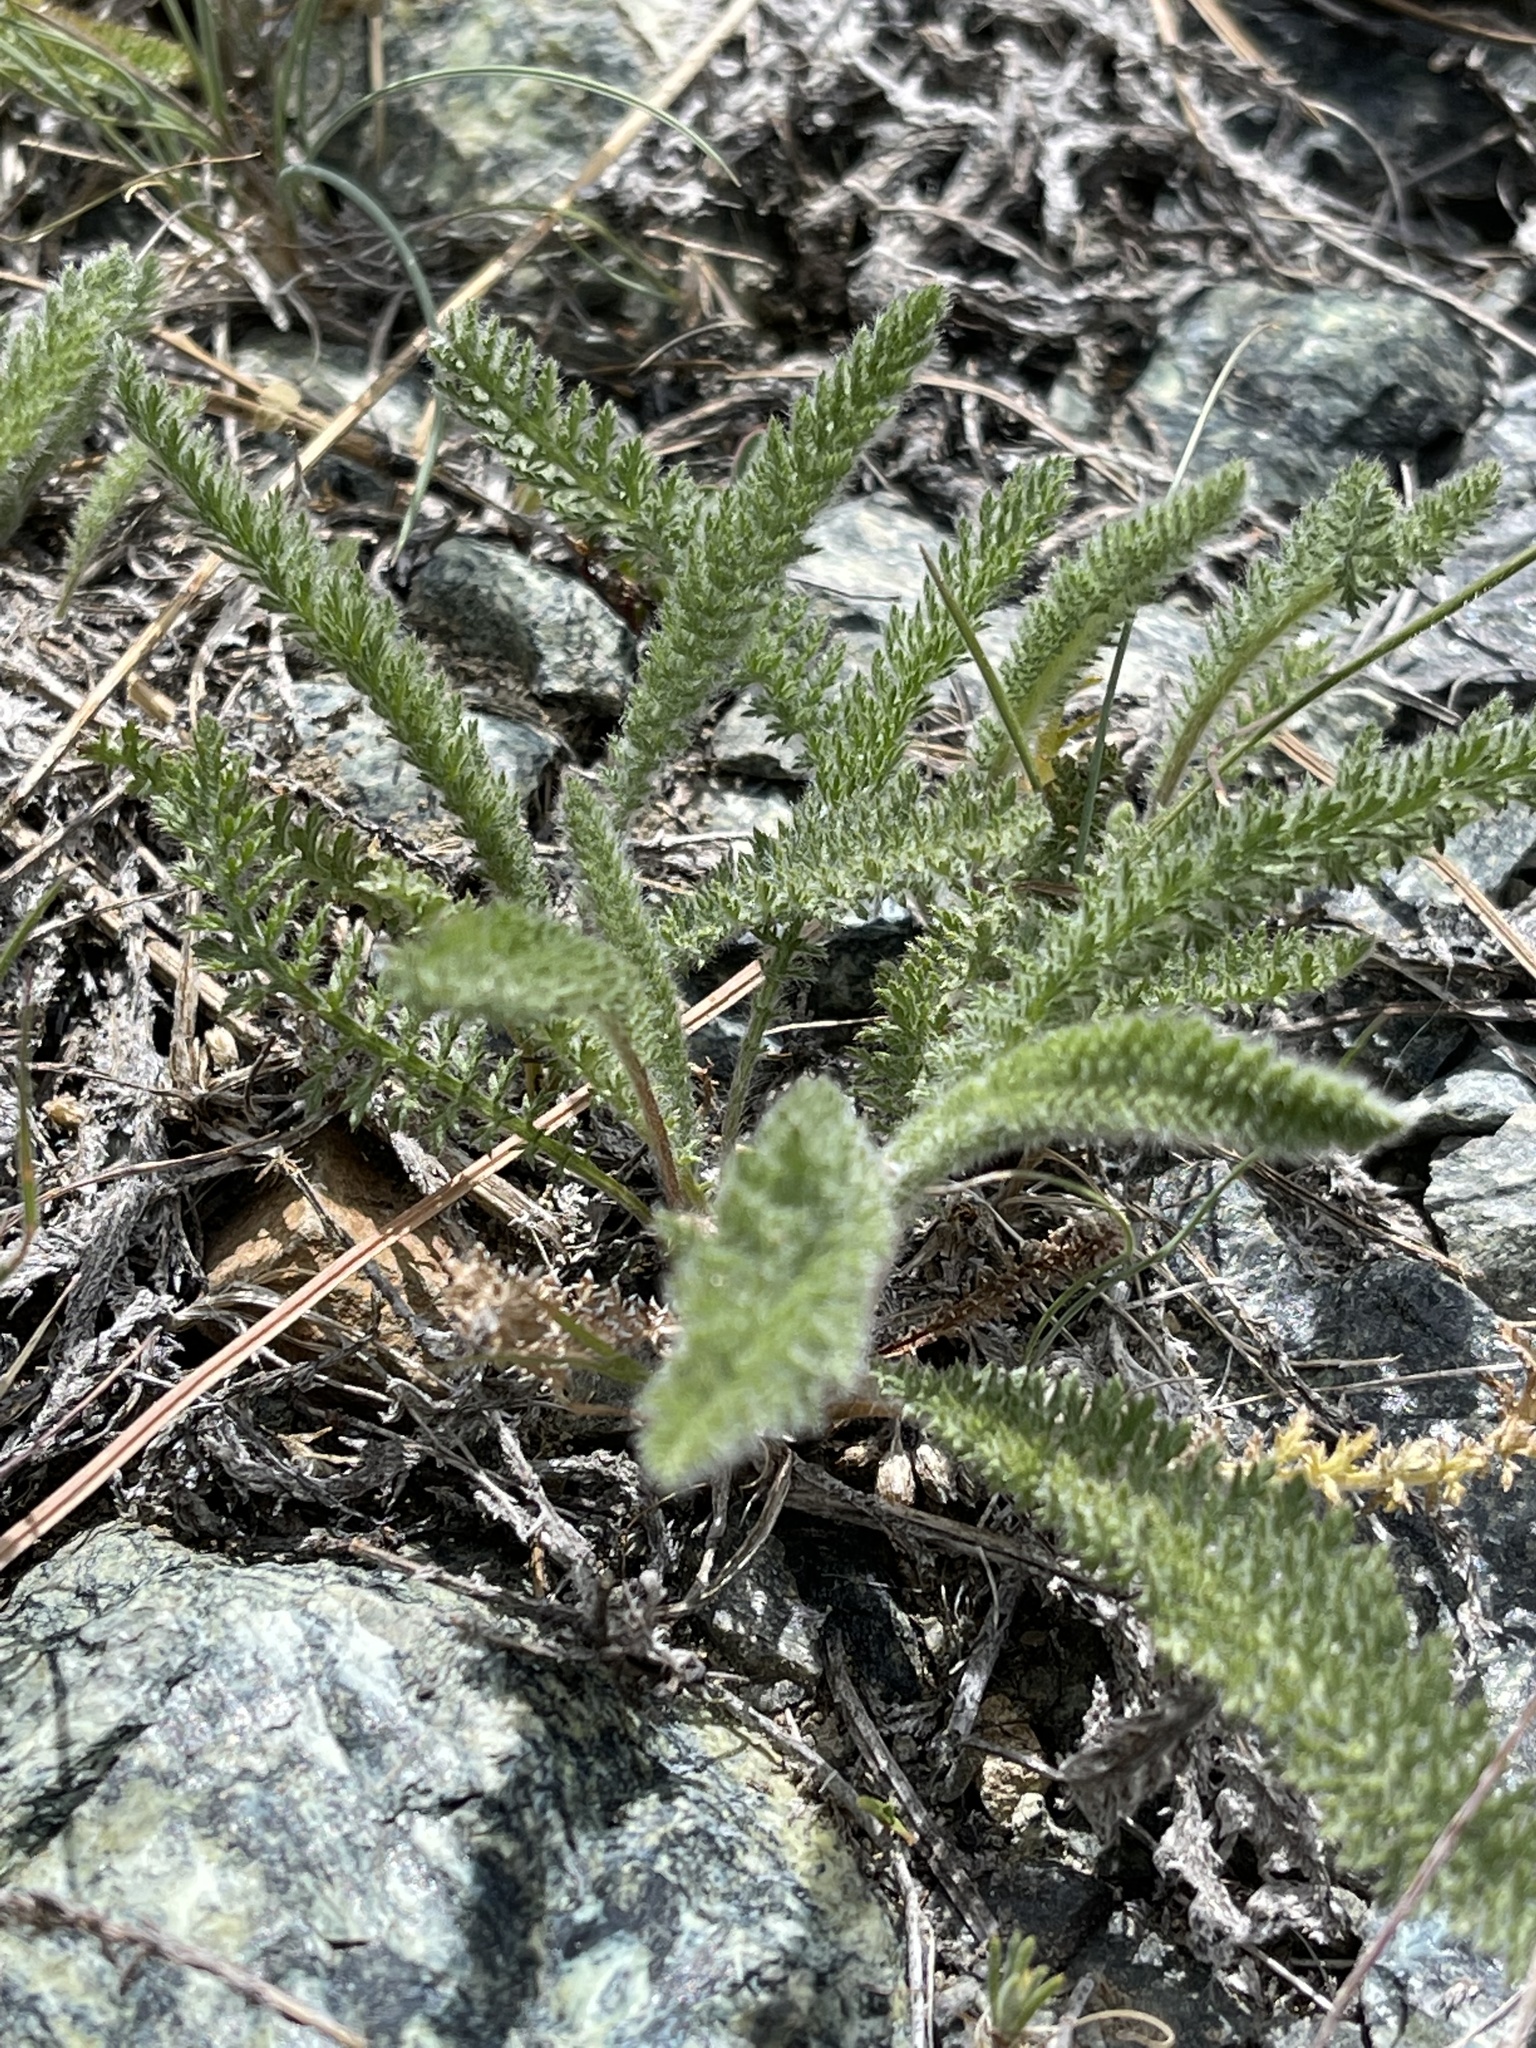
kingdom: Plantae
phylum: Tracheophyta
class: Magnoliopsida
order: Asterales
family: Asteraceae
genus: Achillea
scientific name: Achillea millefolium
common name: Yarrow
